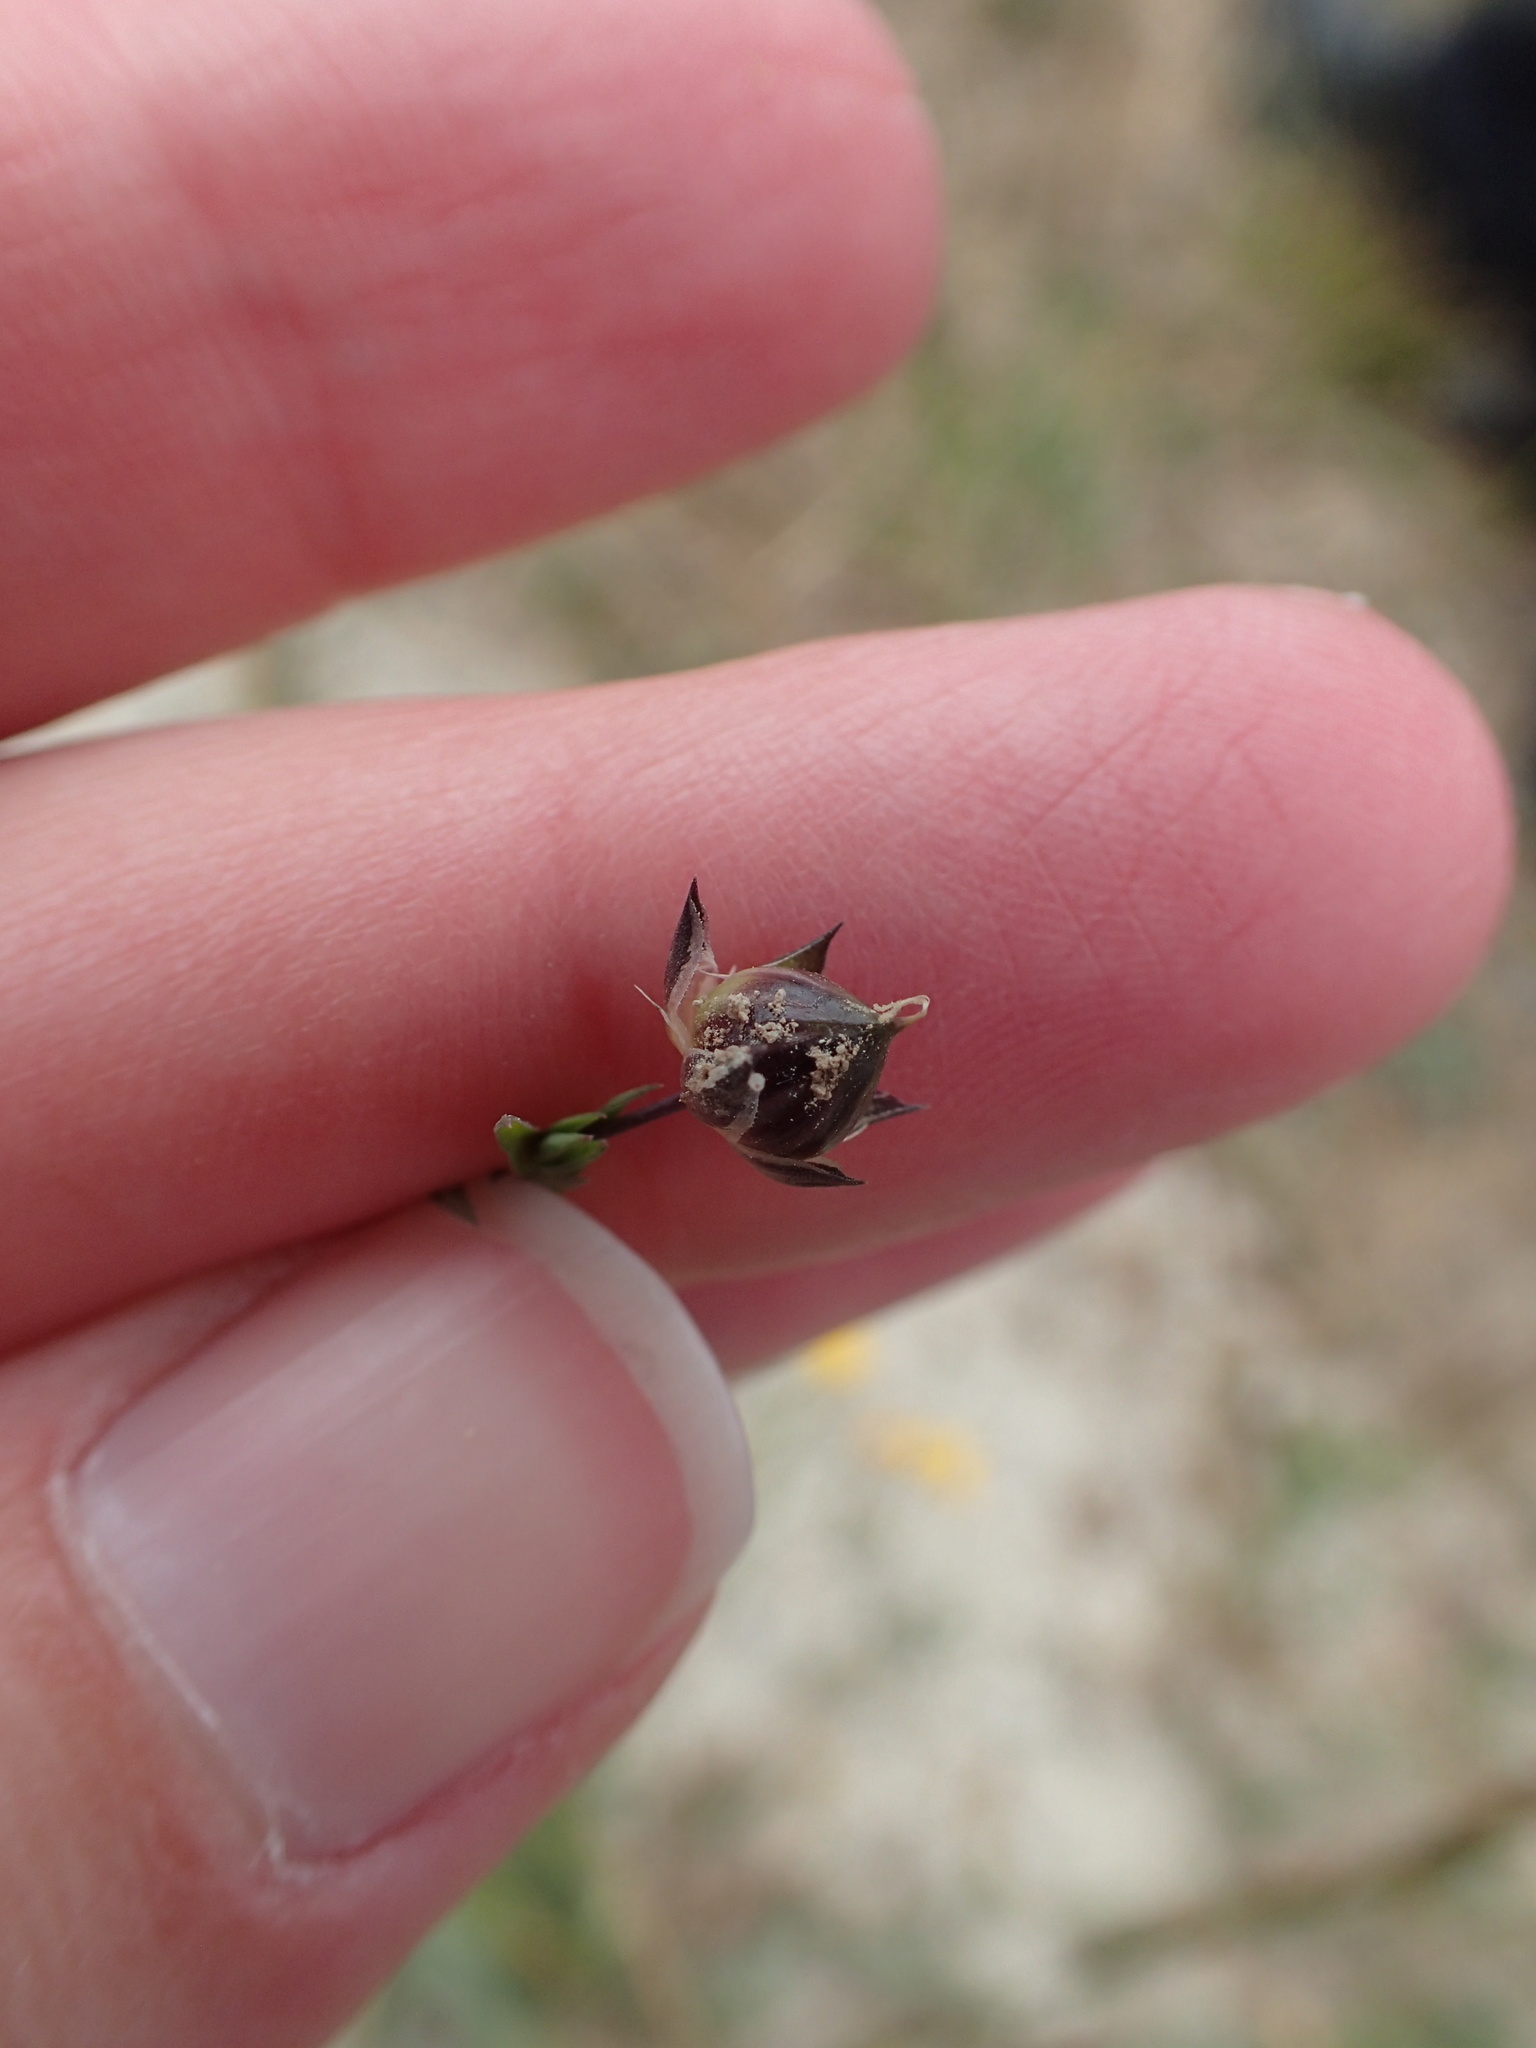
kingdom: Plantae
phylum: Tracheophyta
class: Magnoliopsida
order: Malpighiales
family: Linaceae
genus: Linum
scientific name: Linum bienne
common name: Pale flax
